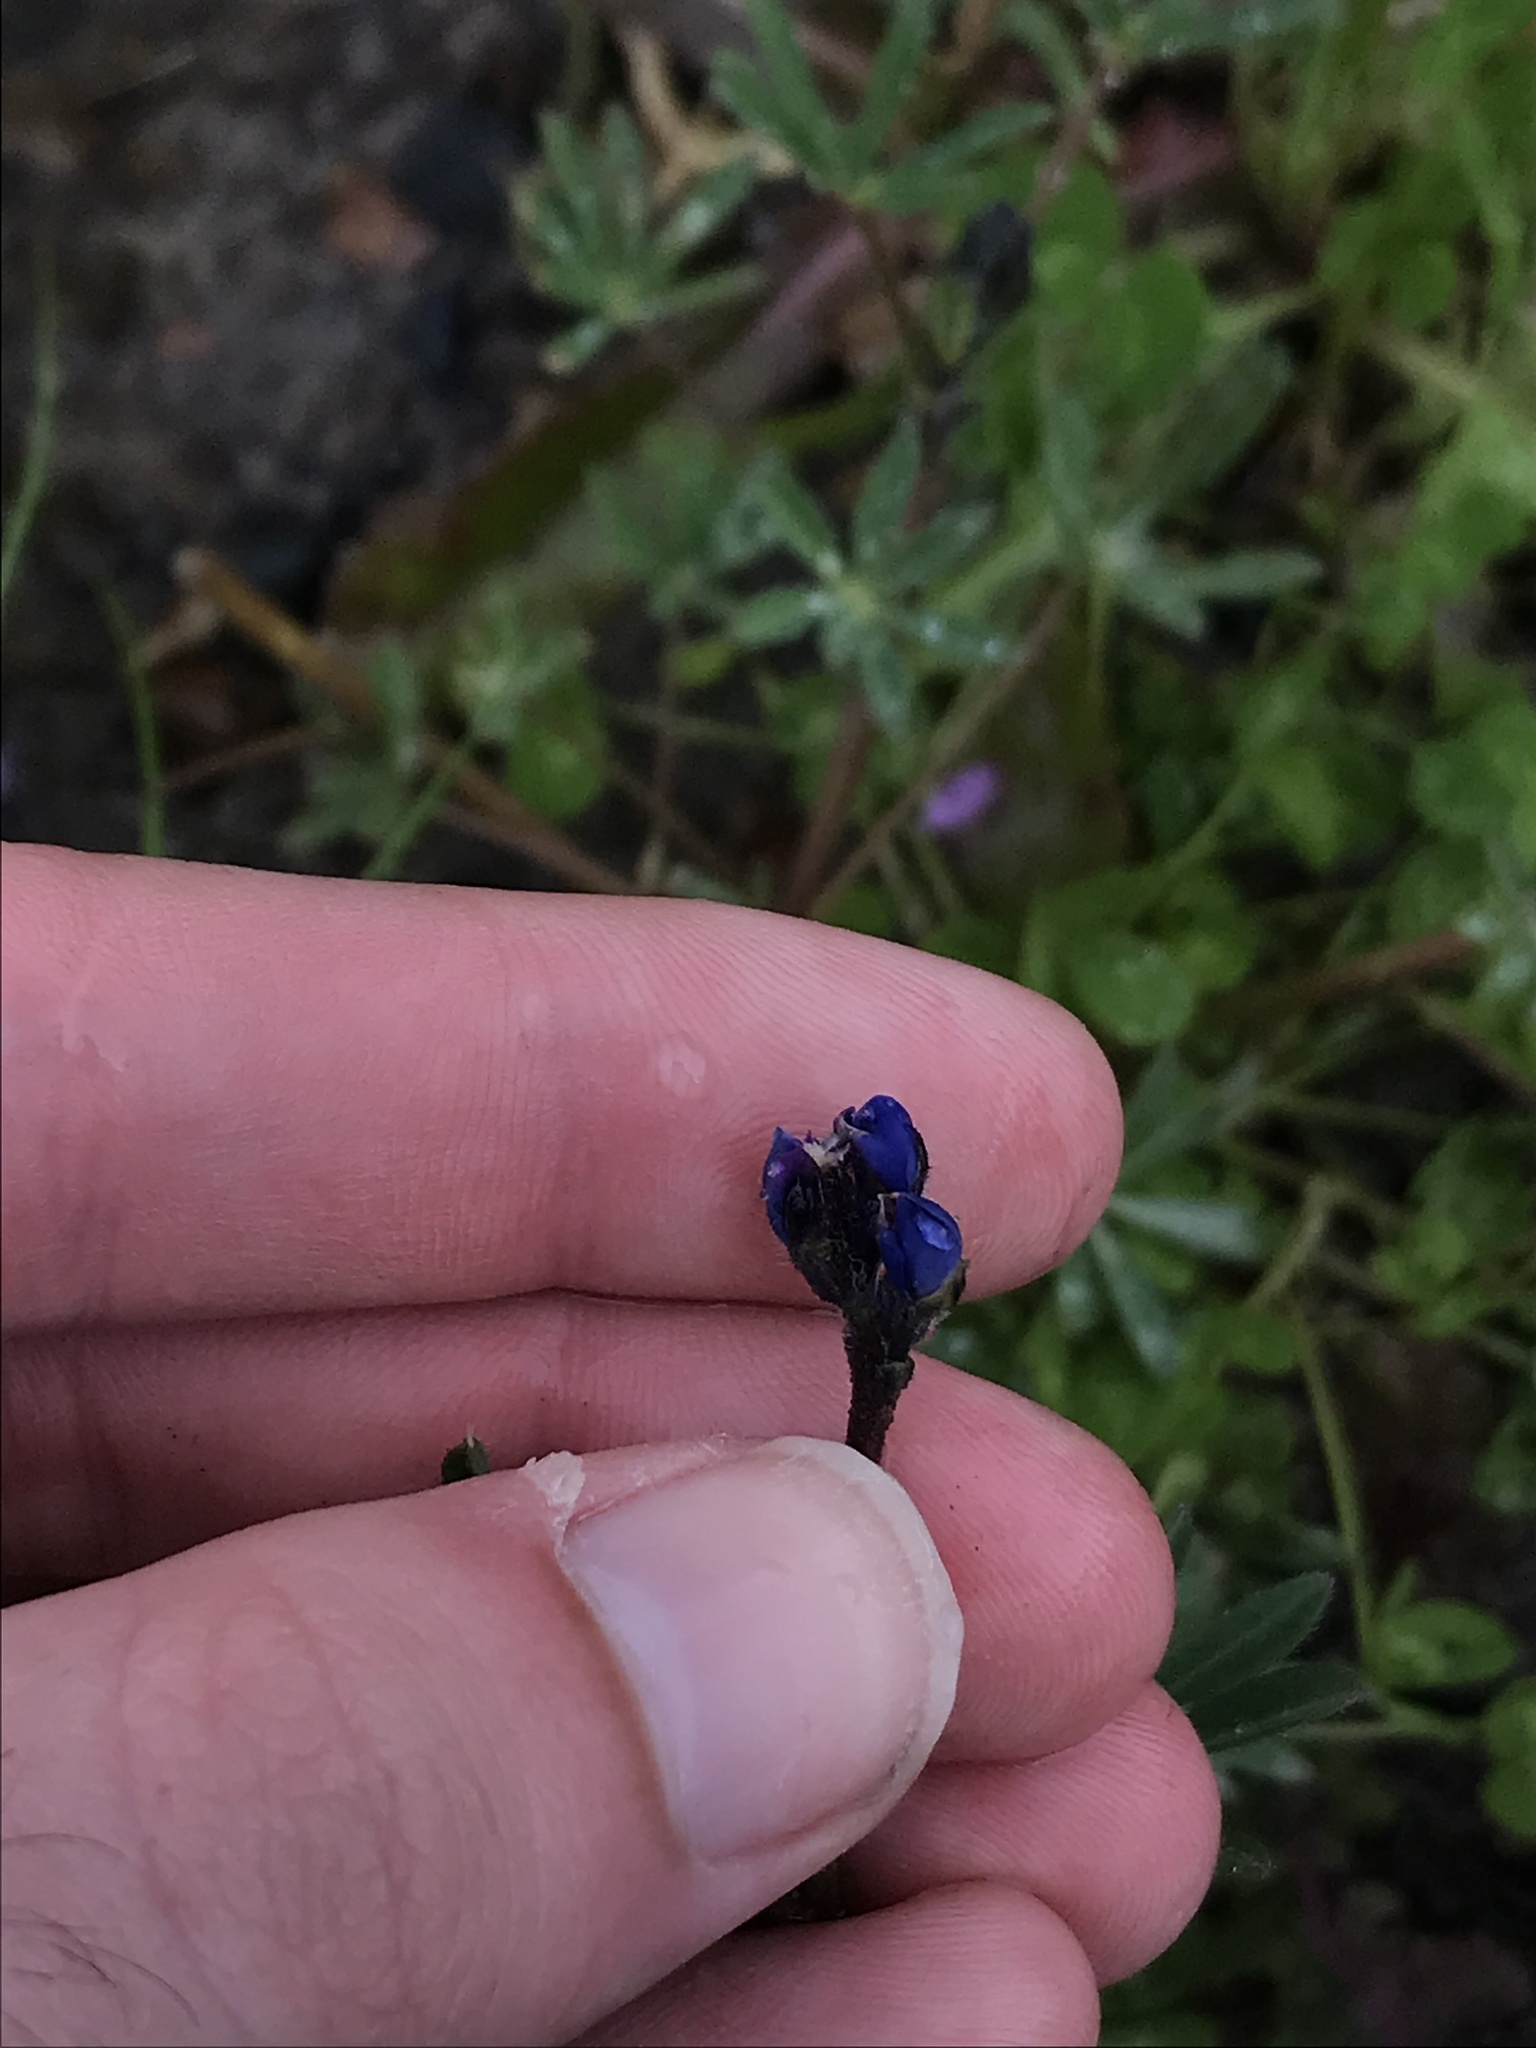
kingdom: Plantae
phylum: Tracheophyta
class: Magnoliopsida
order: Fabales
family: Fabaceae
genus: Lupinus
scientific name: Lupinus bicolor
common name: Miniature lupine
